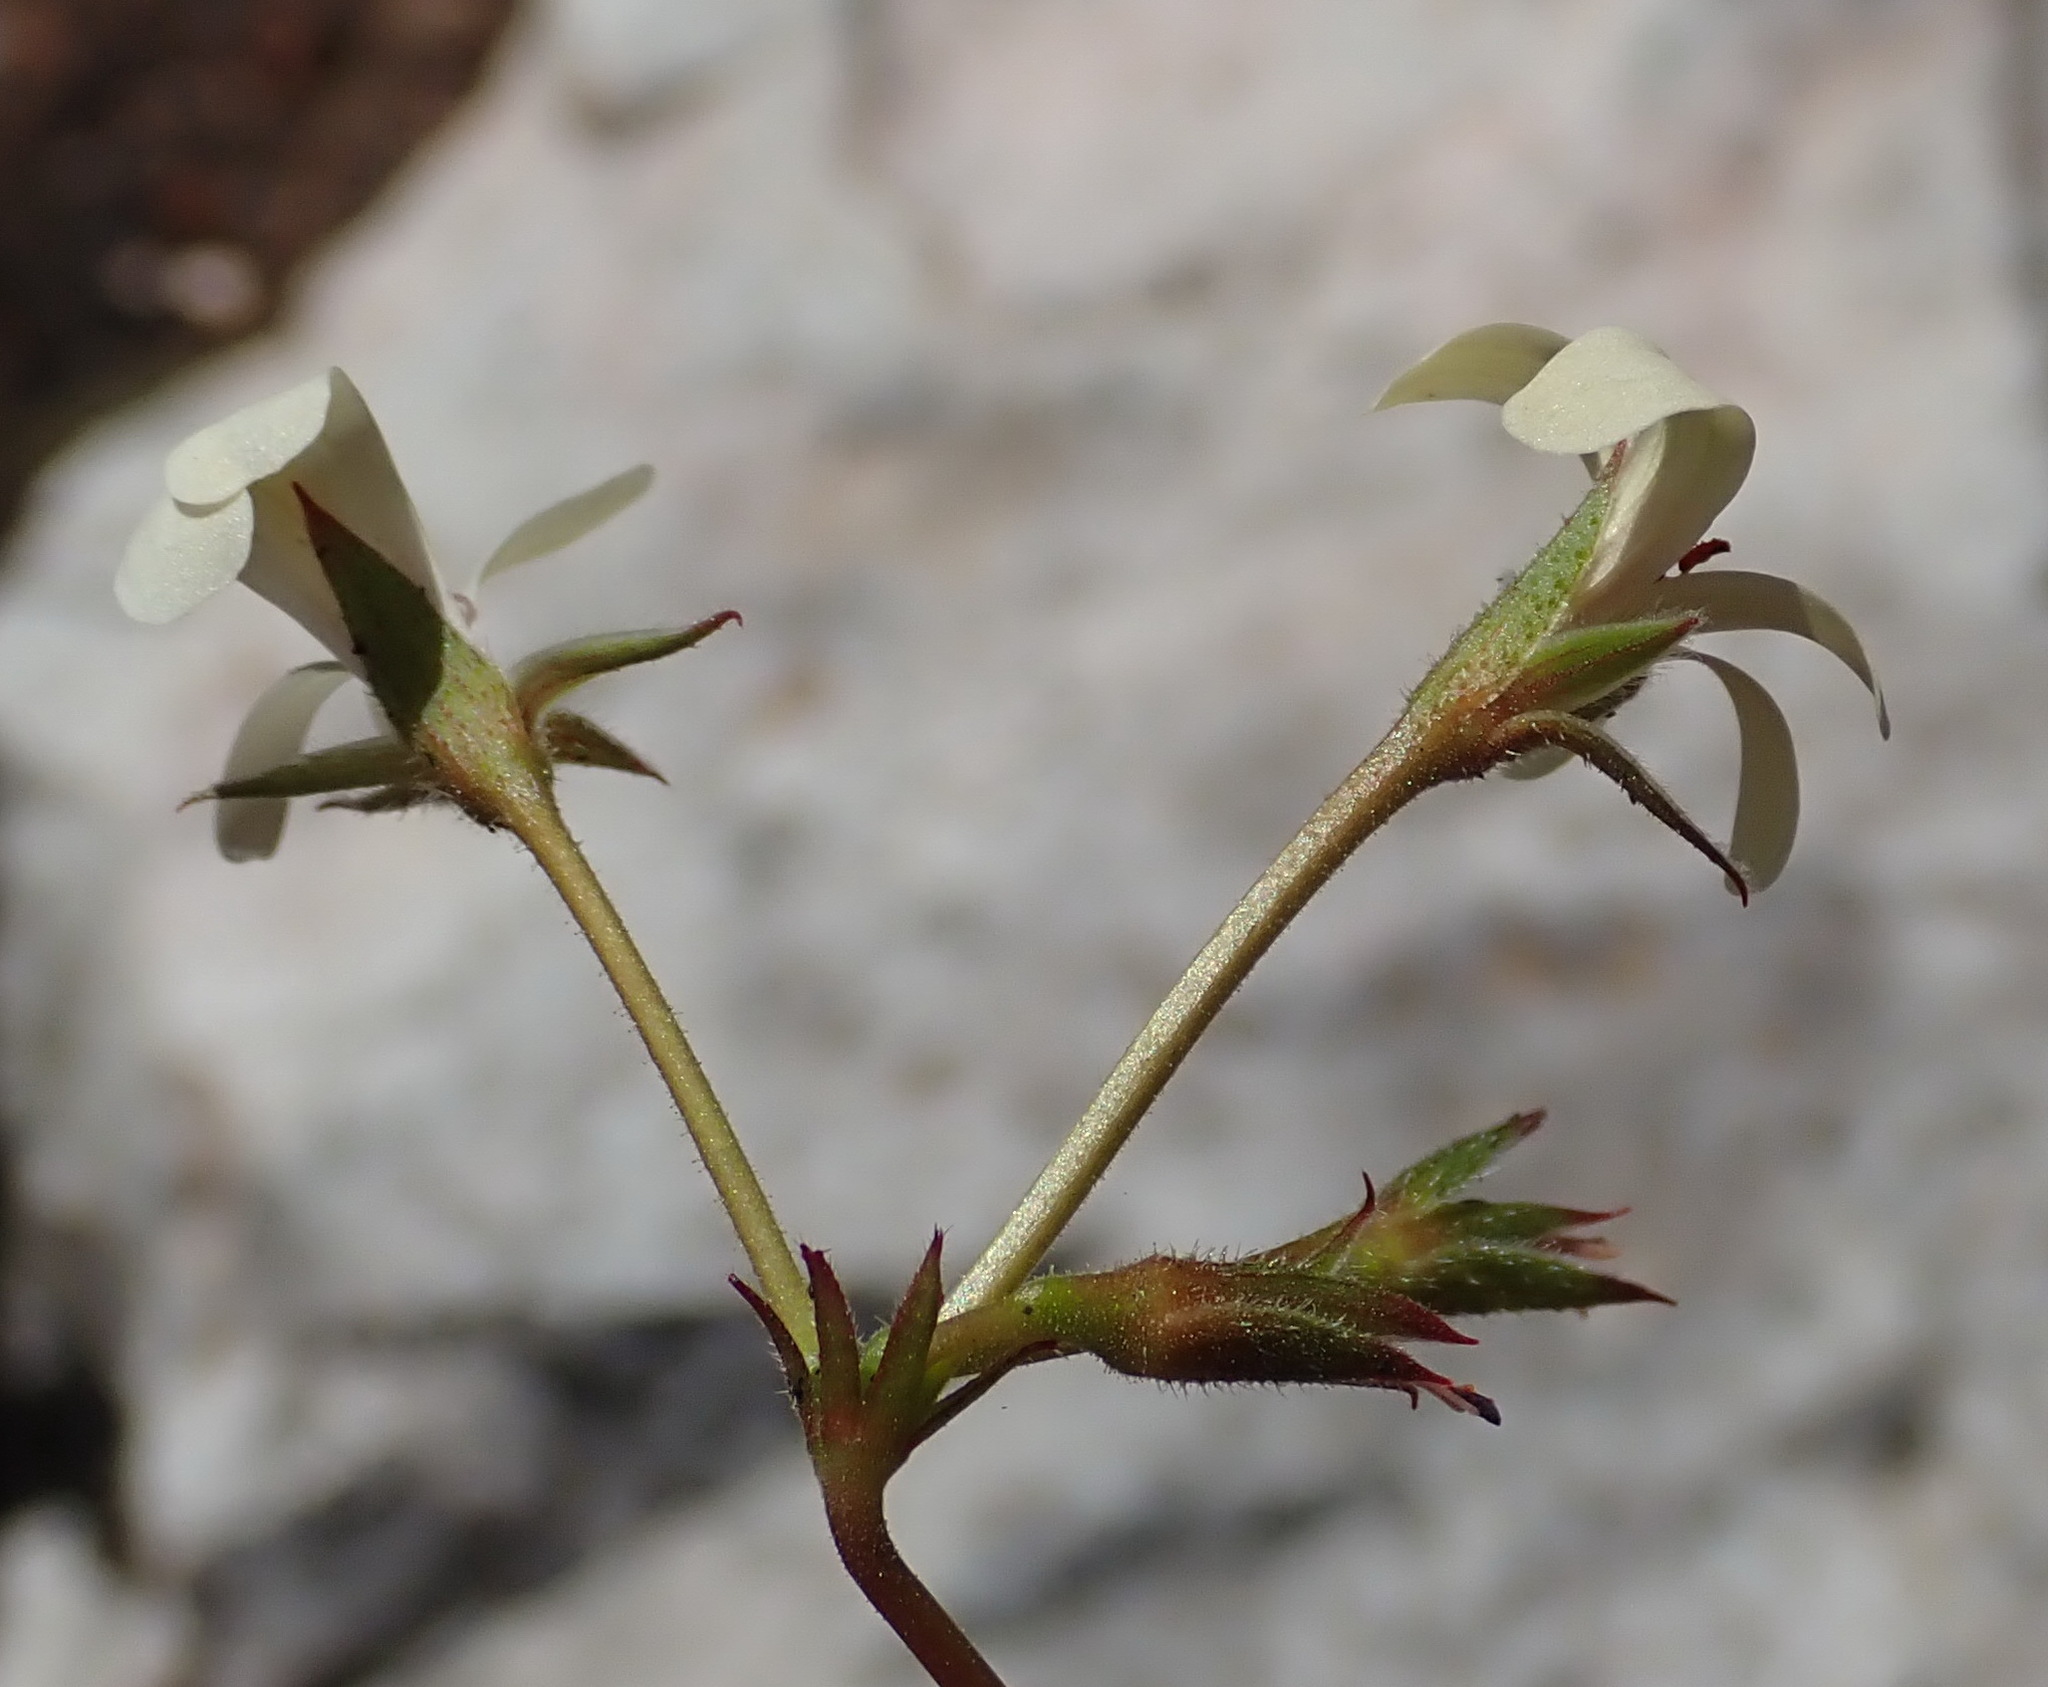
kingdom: Plantae
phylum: Tracheophyta
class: Magnoliopsida
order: Geraniales
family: Geraniaceae
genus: Pelargonium
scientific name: Pelargonium elongatum
